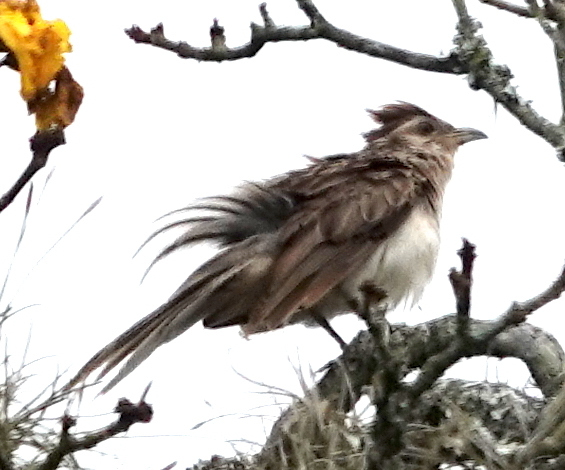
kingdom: Animalia
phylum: Chordata
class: Aves
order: Cuculiformes
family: Cuculidae
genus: Tapera
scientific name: Tapera naevia
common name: Striped cuckoo
